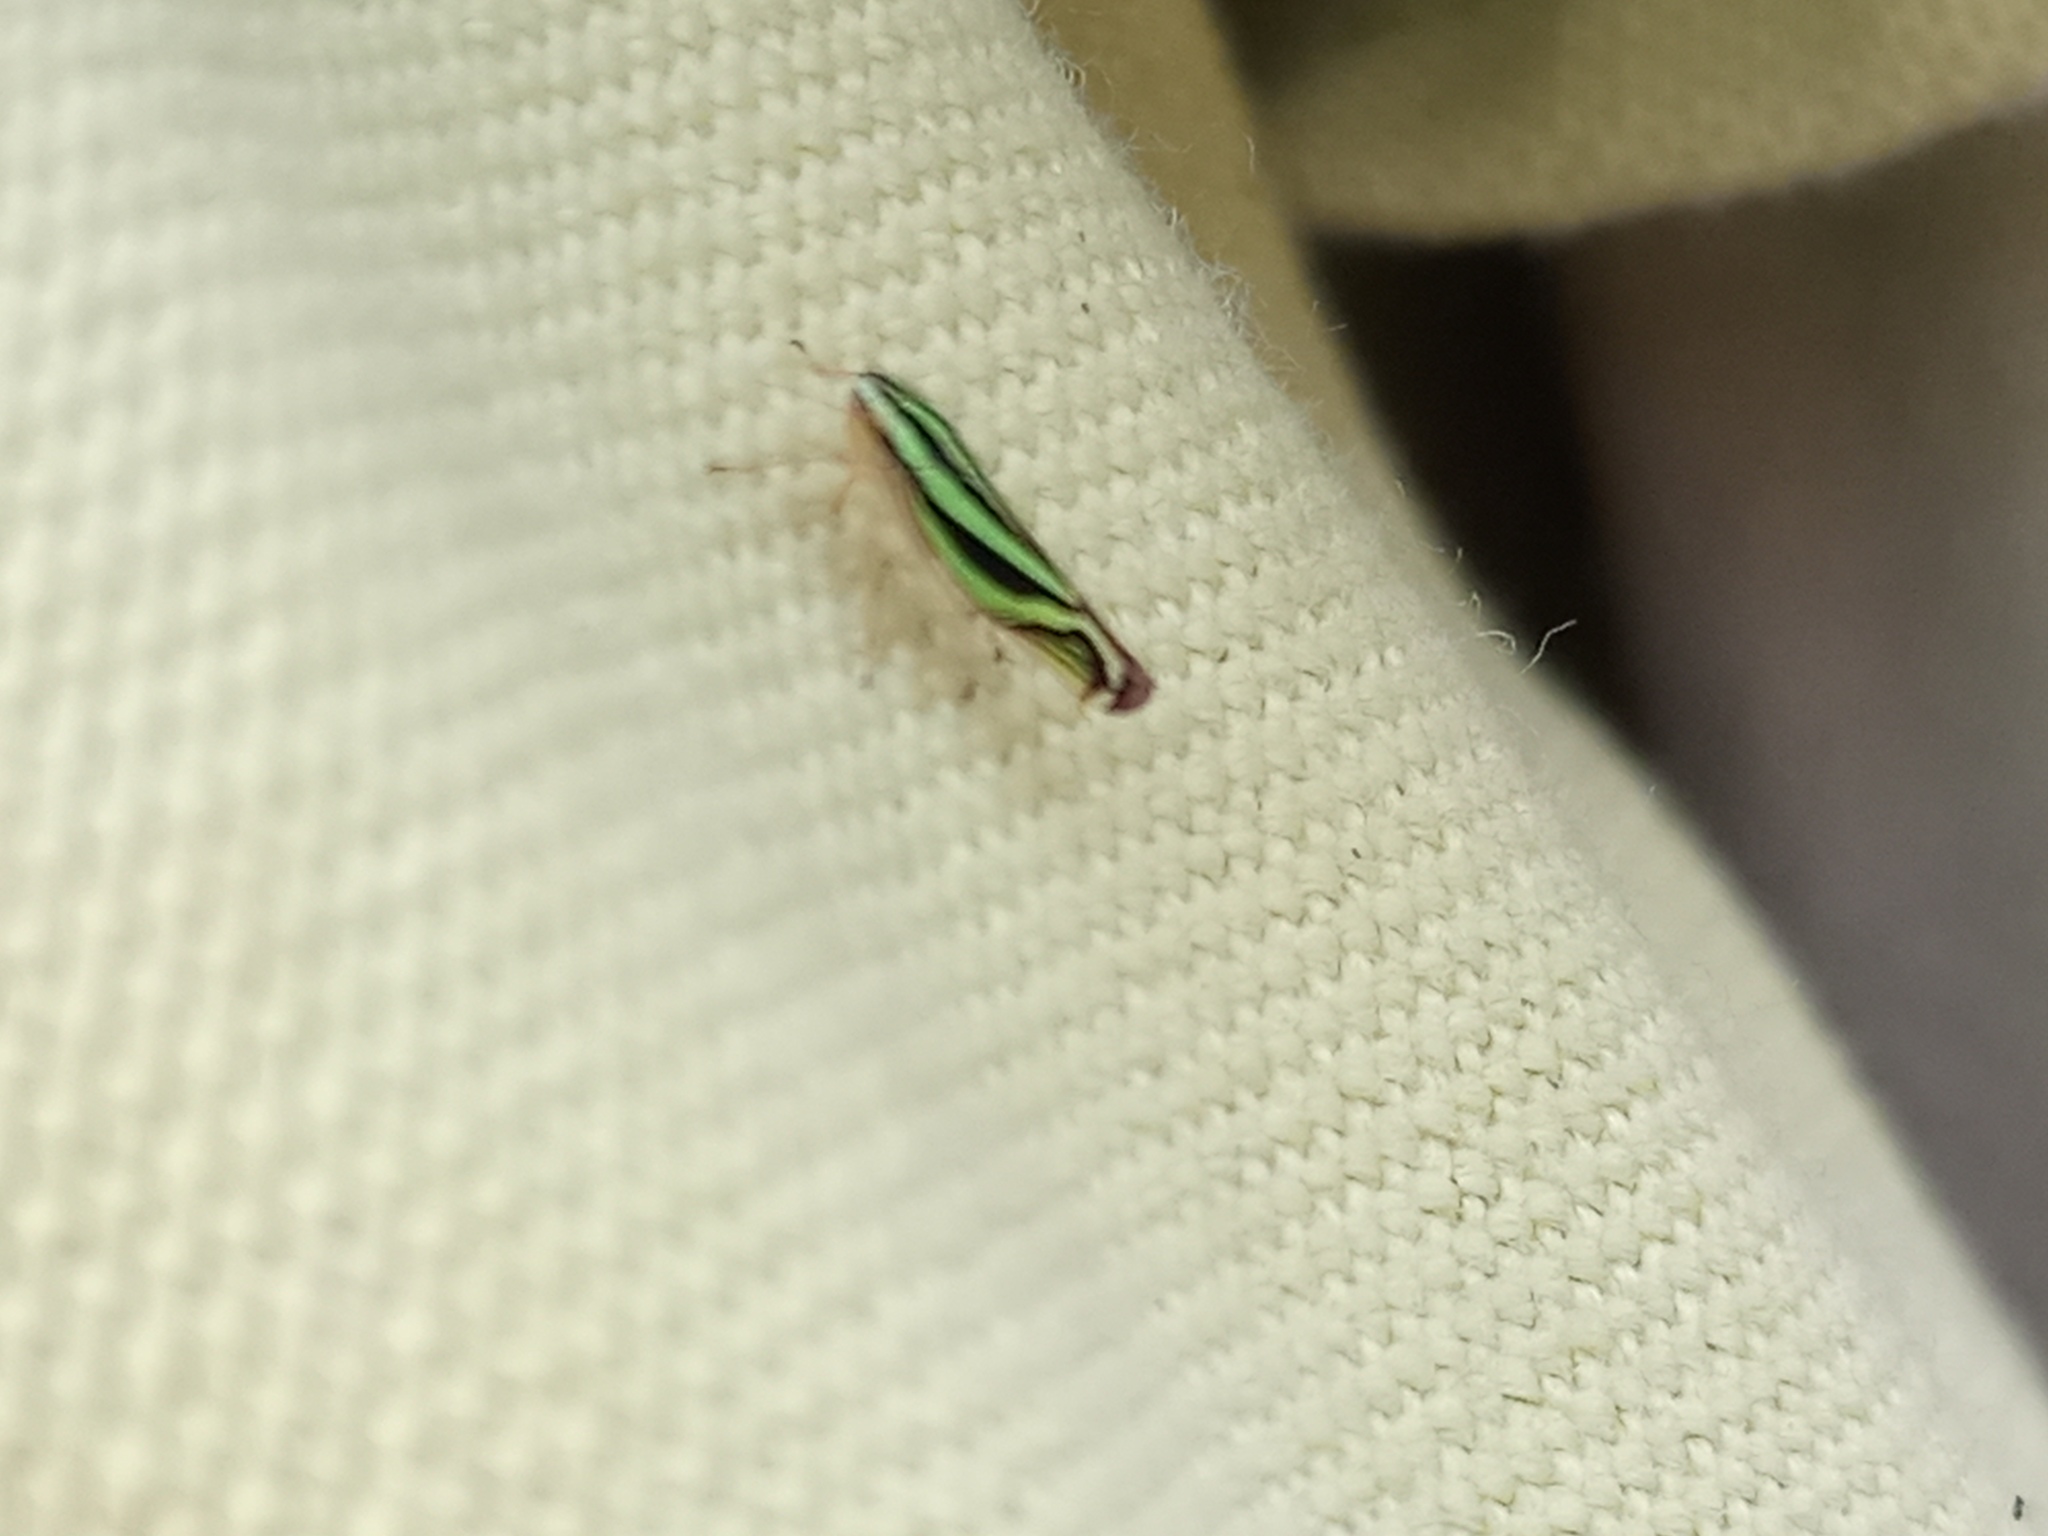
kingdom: Animalia
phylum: Arthropoda
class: Insecta
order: Hemiptera
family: Cicadellidae
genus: Sibovia
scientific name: Sibovia sagata
